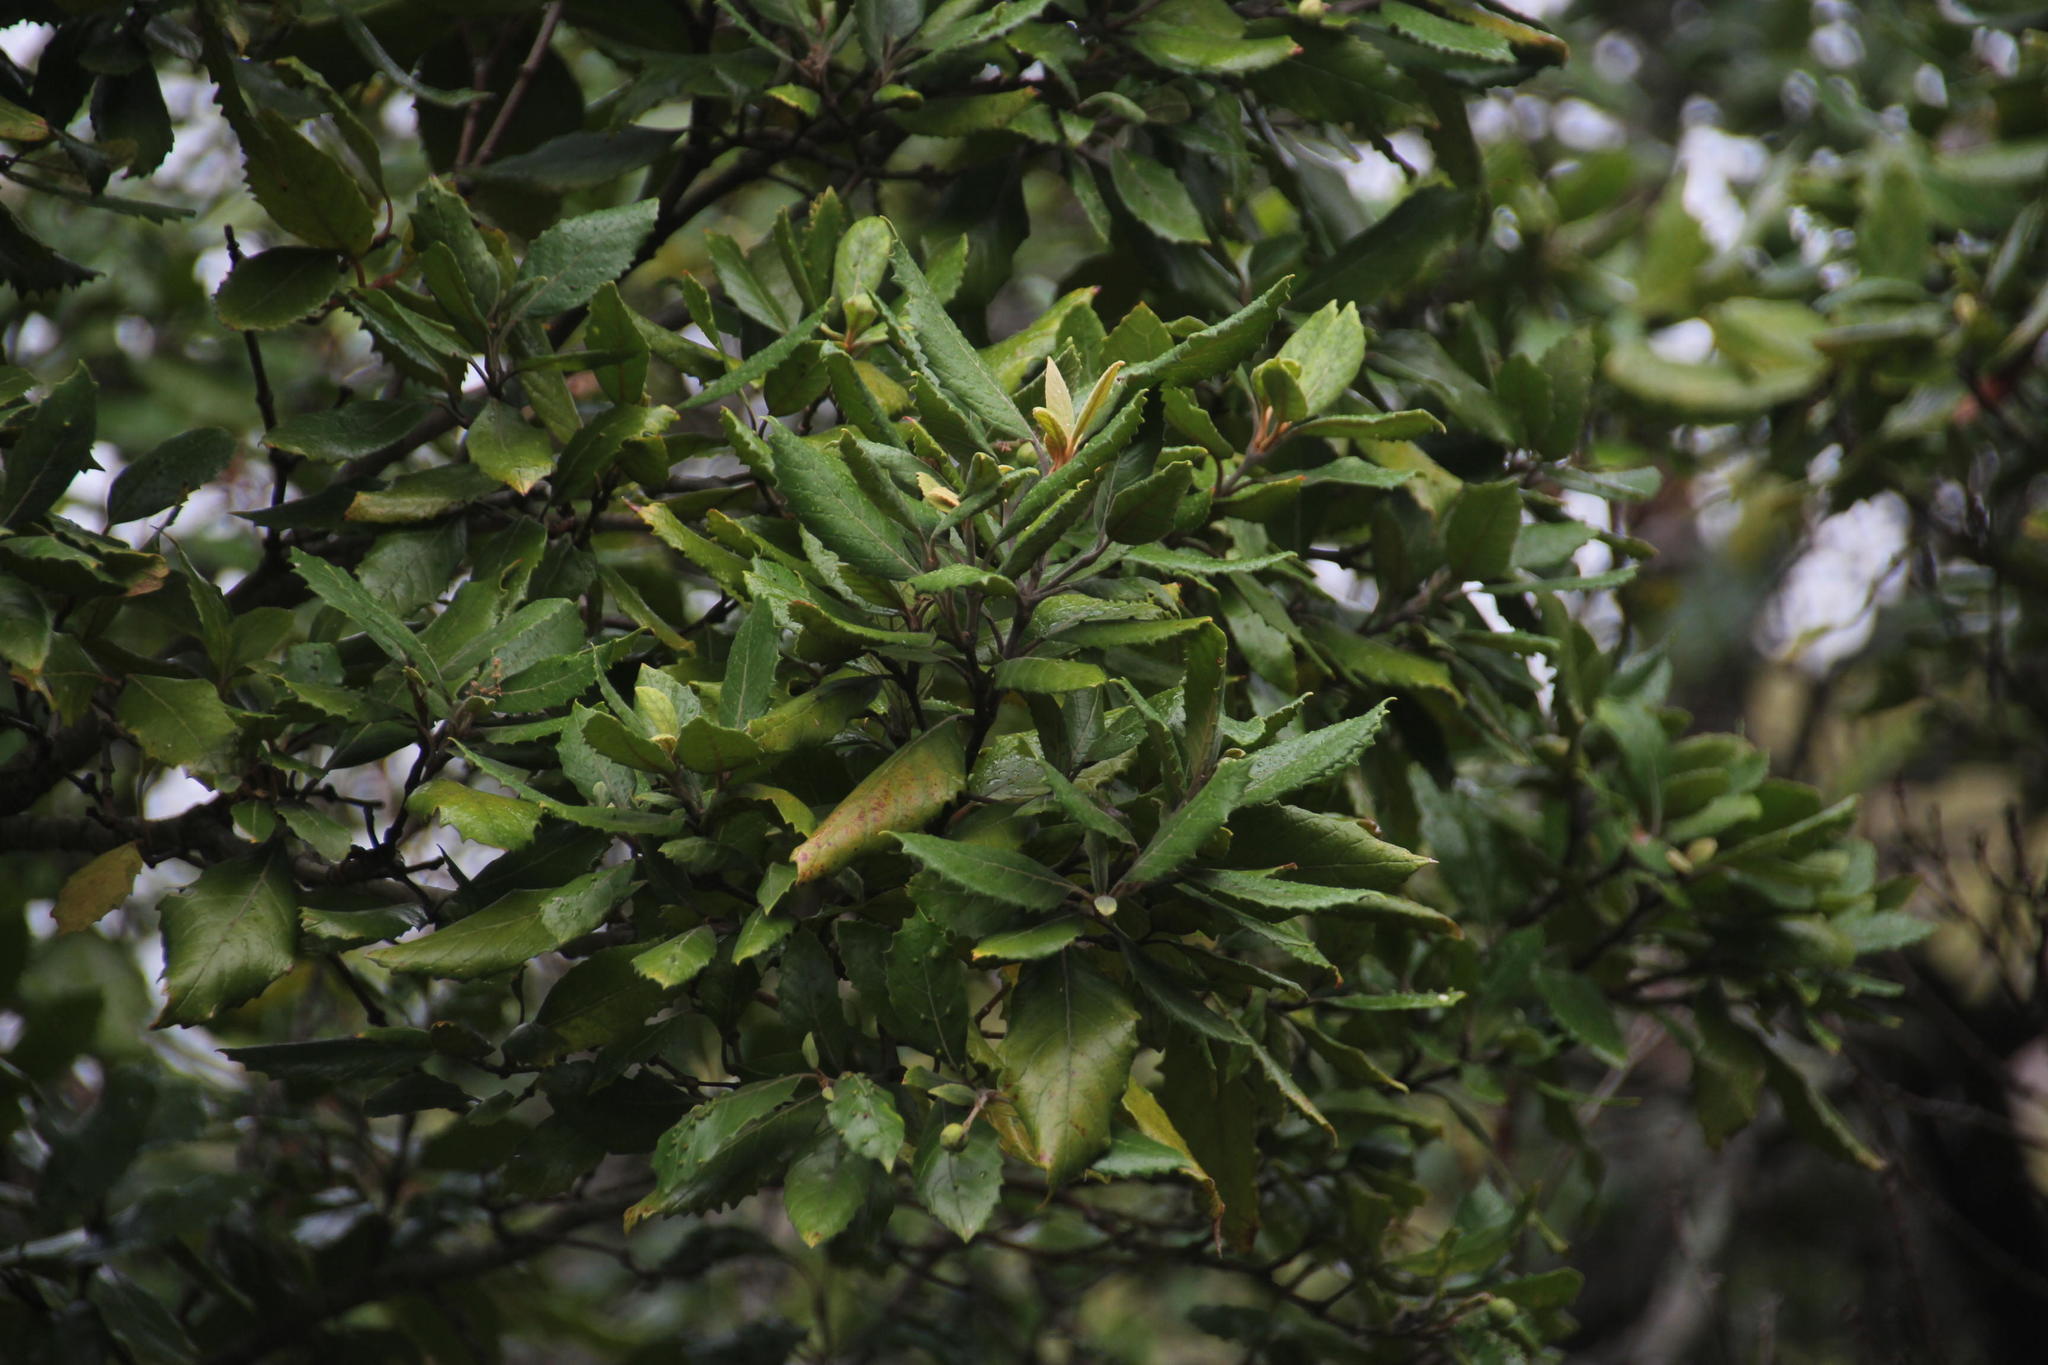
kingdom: Plantae
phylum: Tracheophyta
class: Magnoliopsida
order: Cornales
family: Curtisiaceae
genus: Curtisia
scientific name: Curtisia dentata
